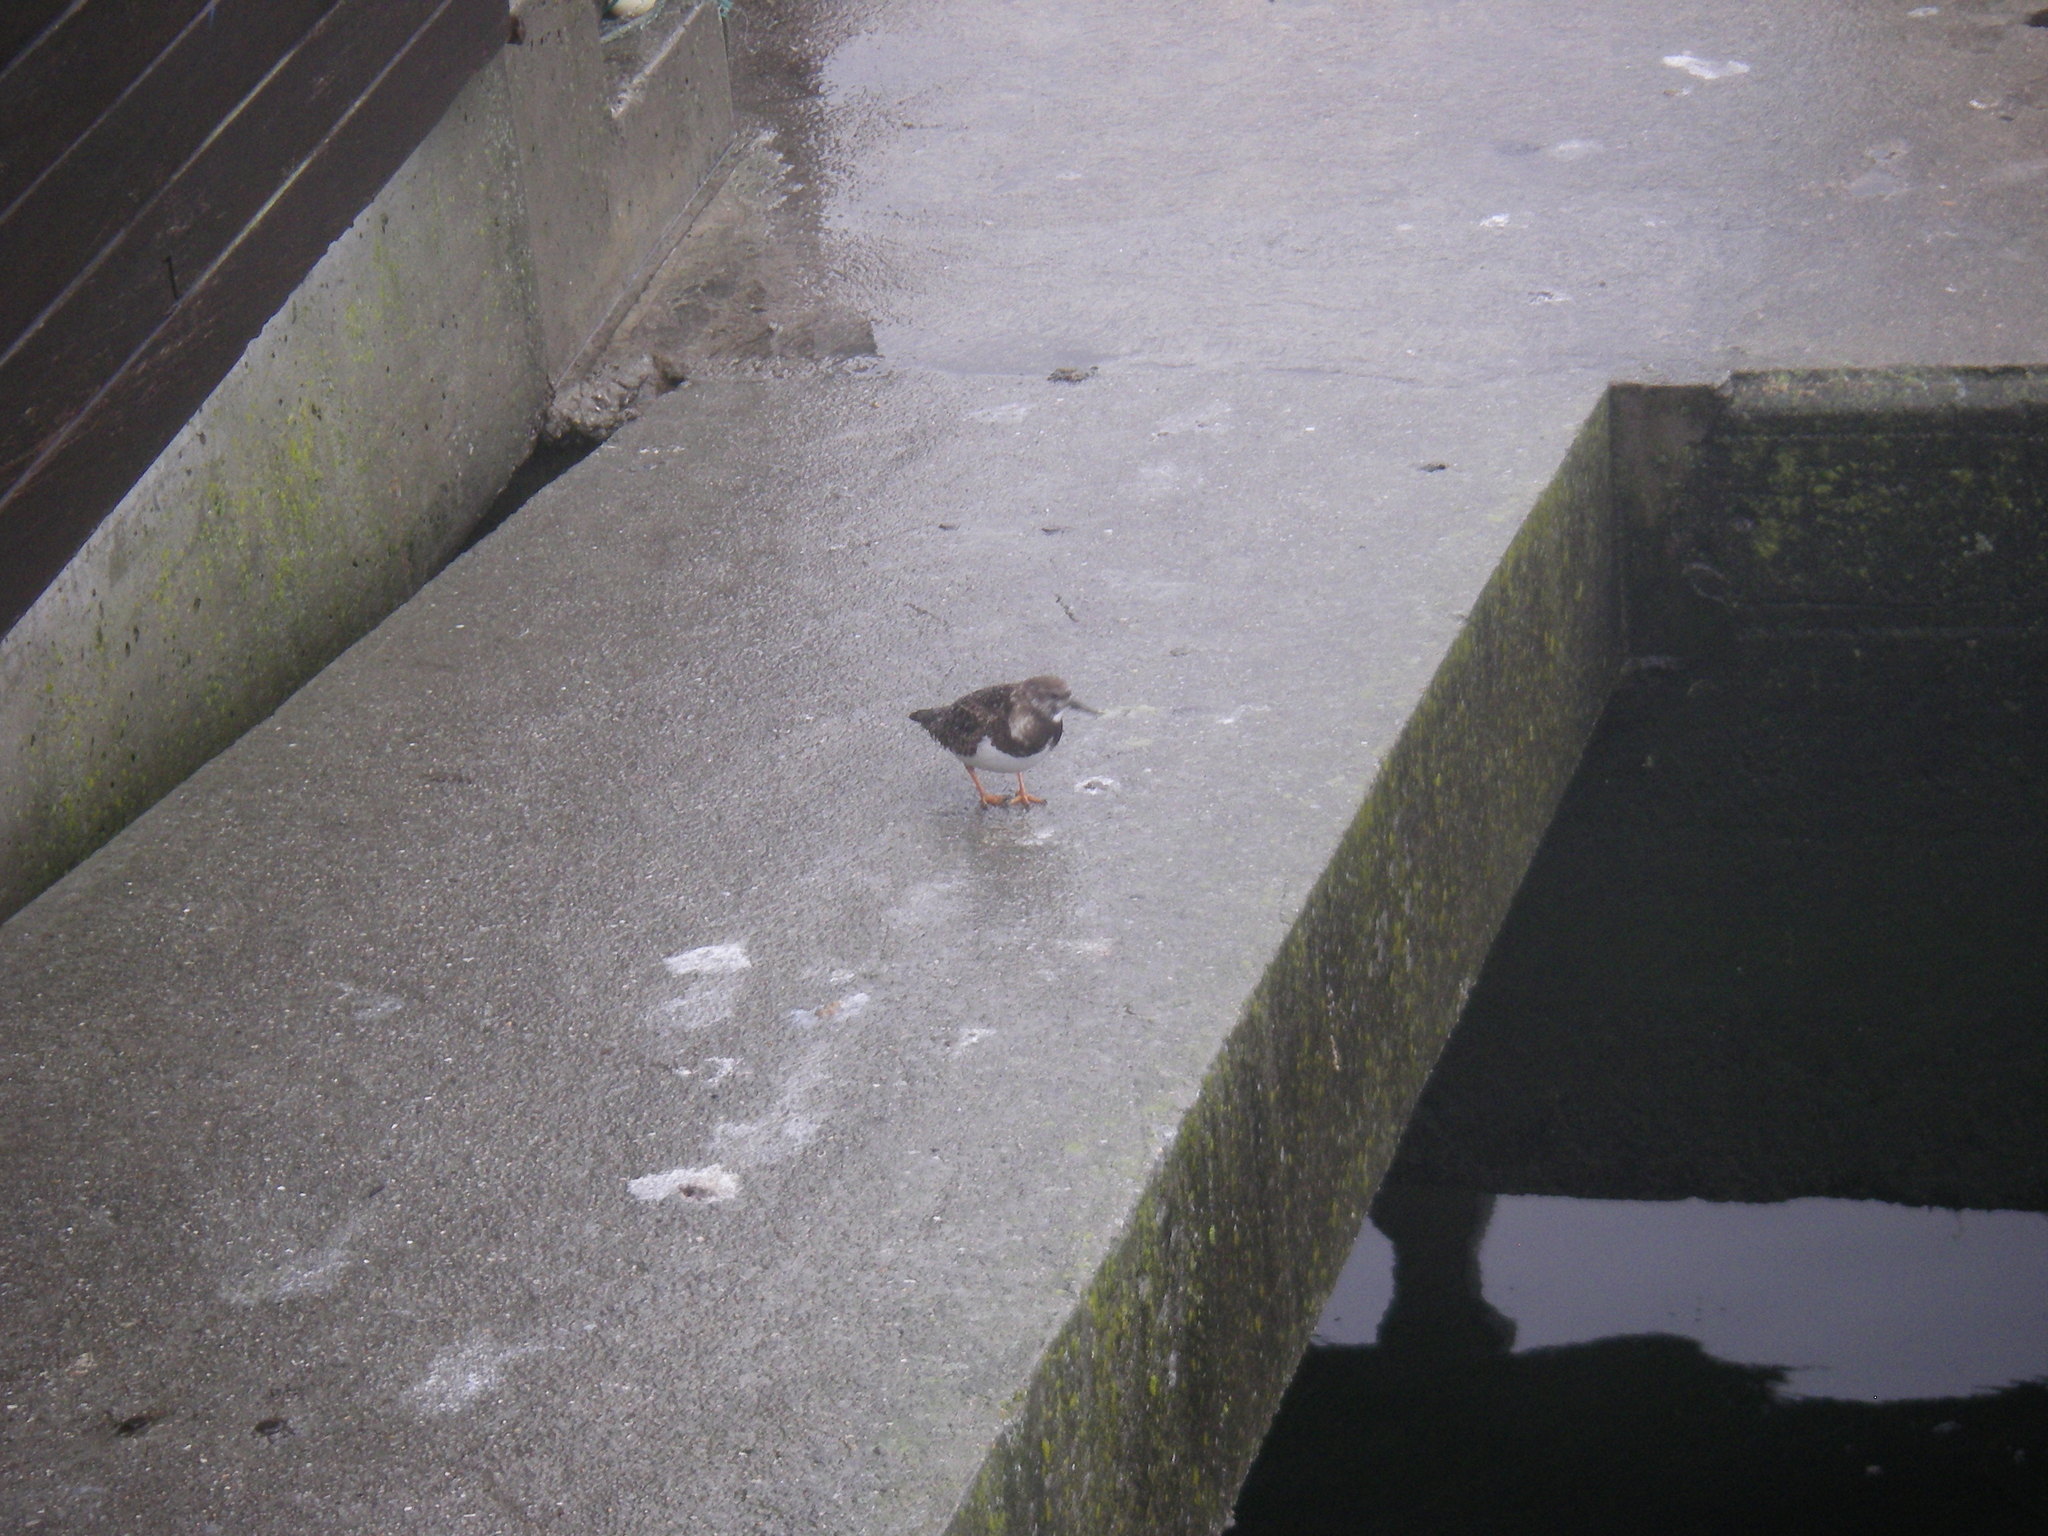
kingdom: Animalia
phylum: Chordata
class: Aves
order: Charadriiformes
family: Scolopacidae
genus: Arenaria
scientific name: Arenaria interpres
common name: Ruddy turnstone
